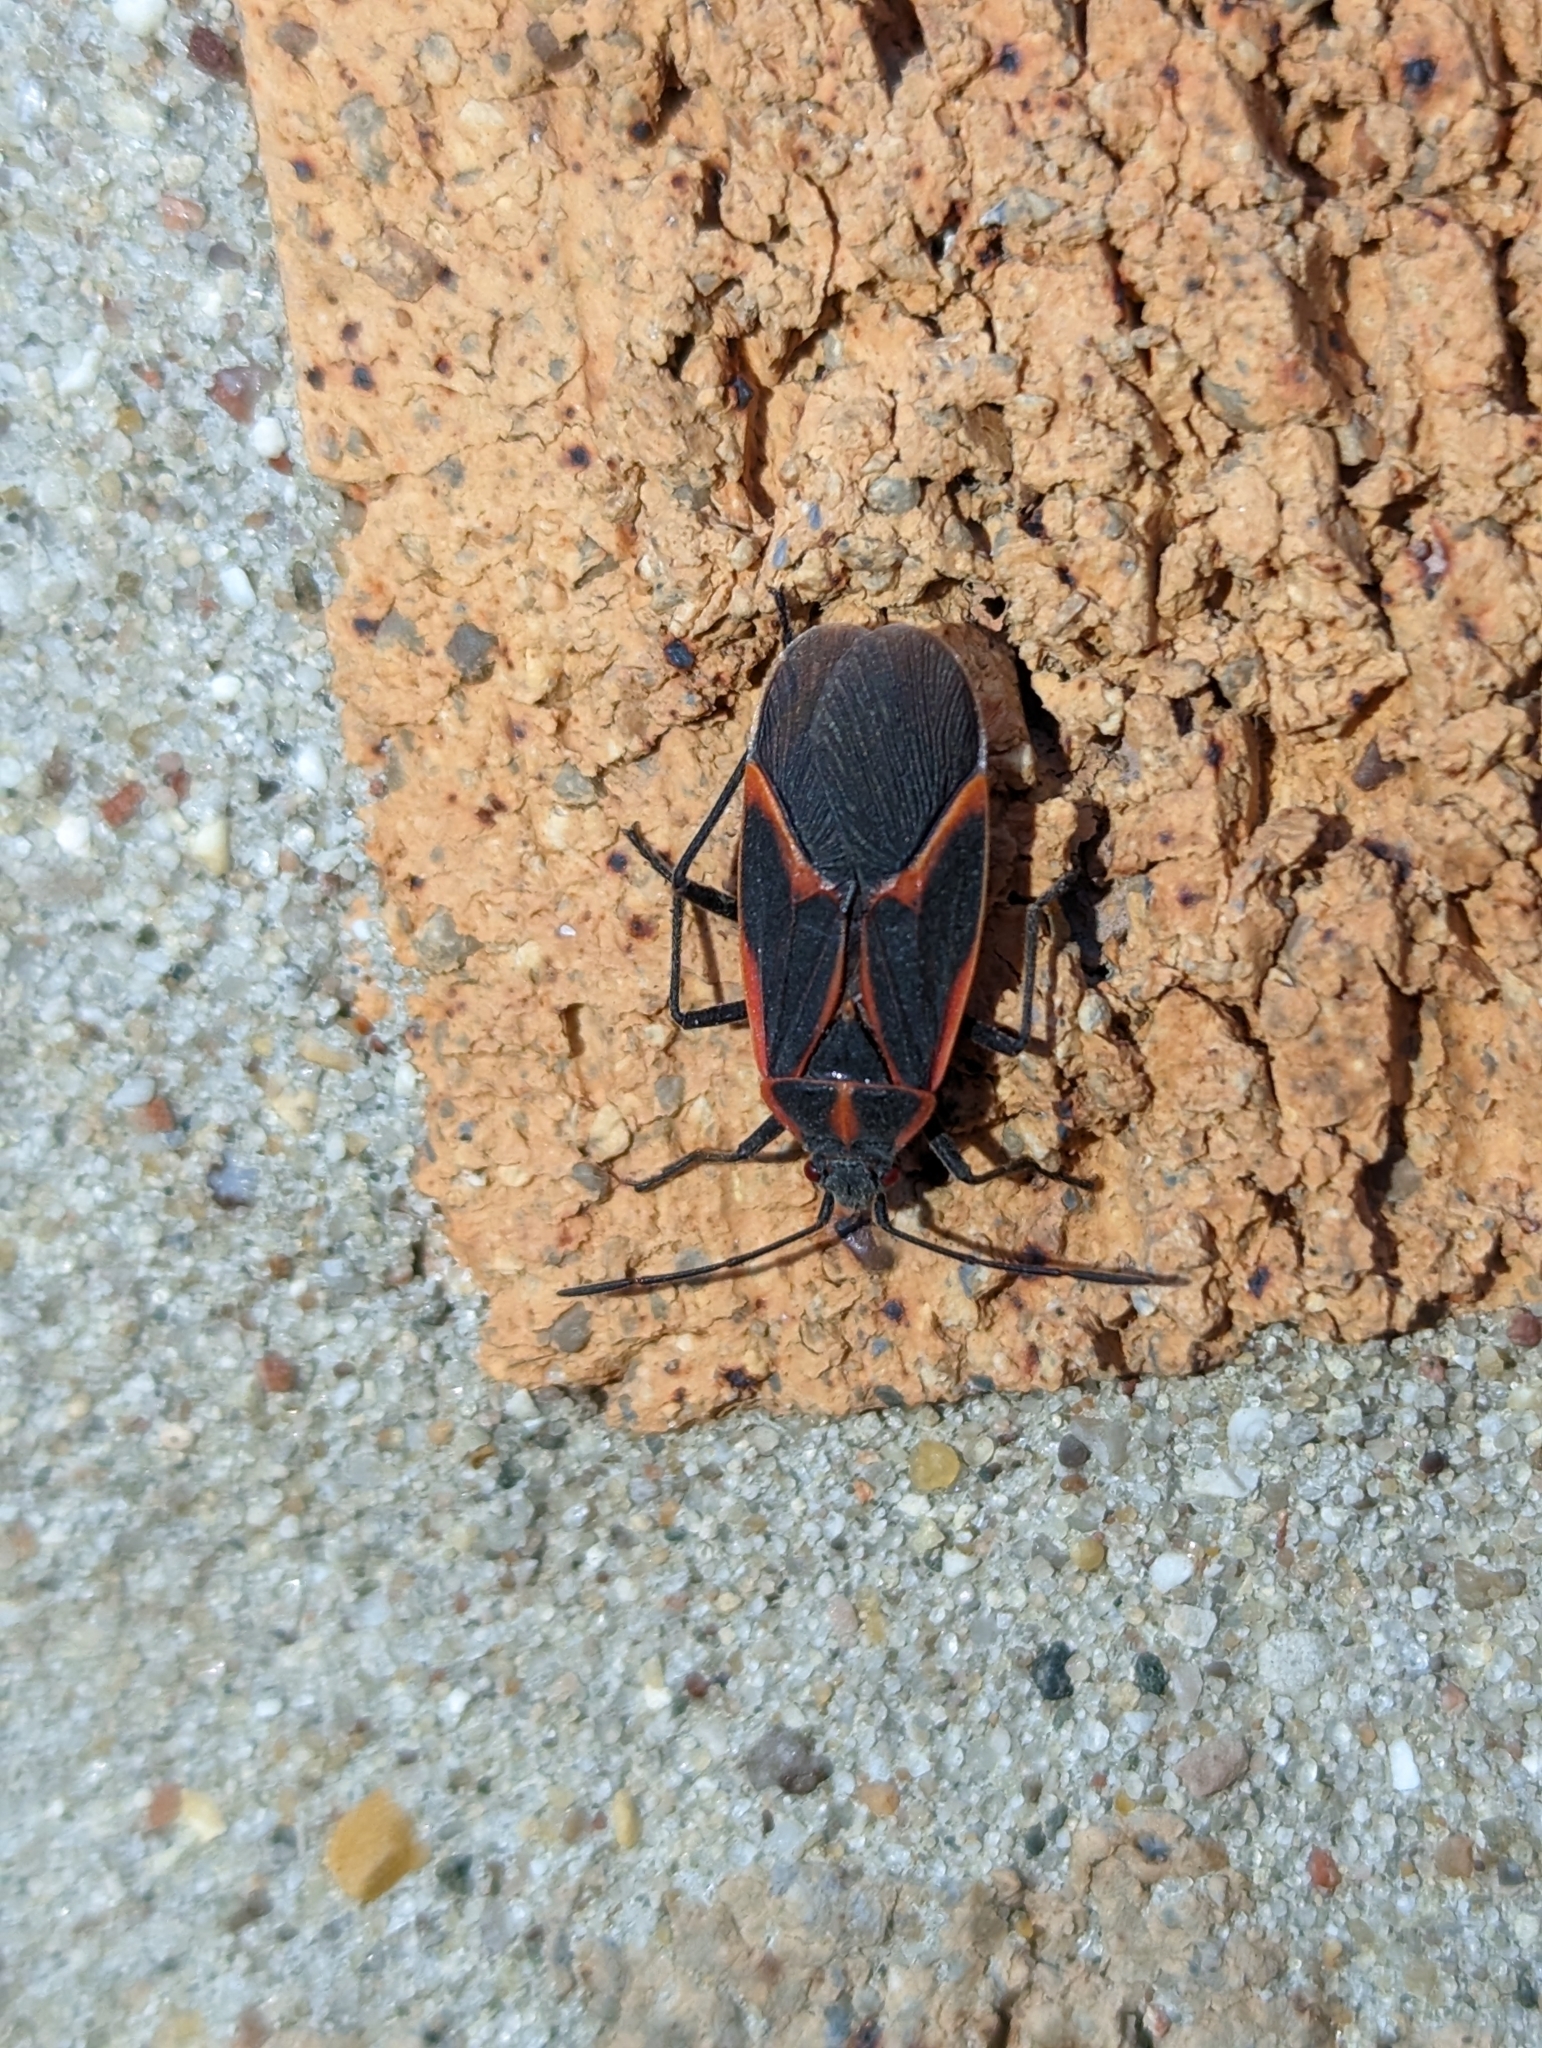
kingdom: Animalia
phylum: Arthropoda
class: Insecta
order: Hemiptera
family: Rhopalidae
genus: Boisea
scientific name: Boisea trivittata
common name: Boxelder bug
